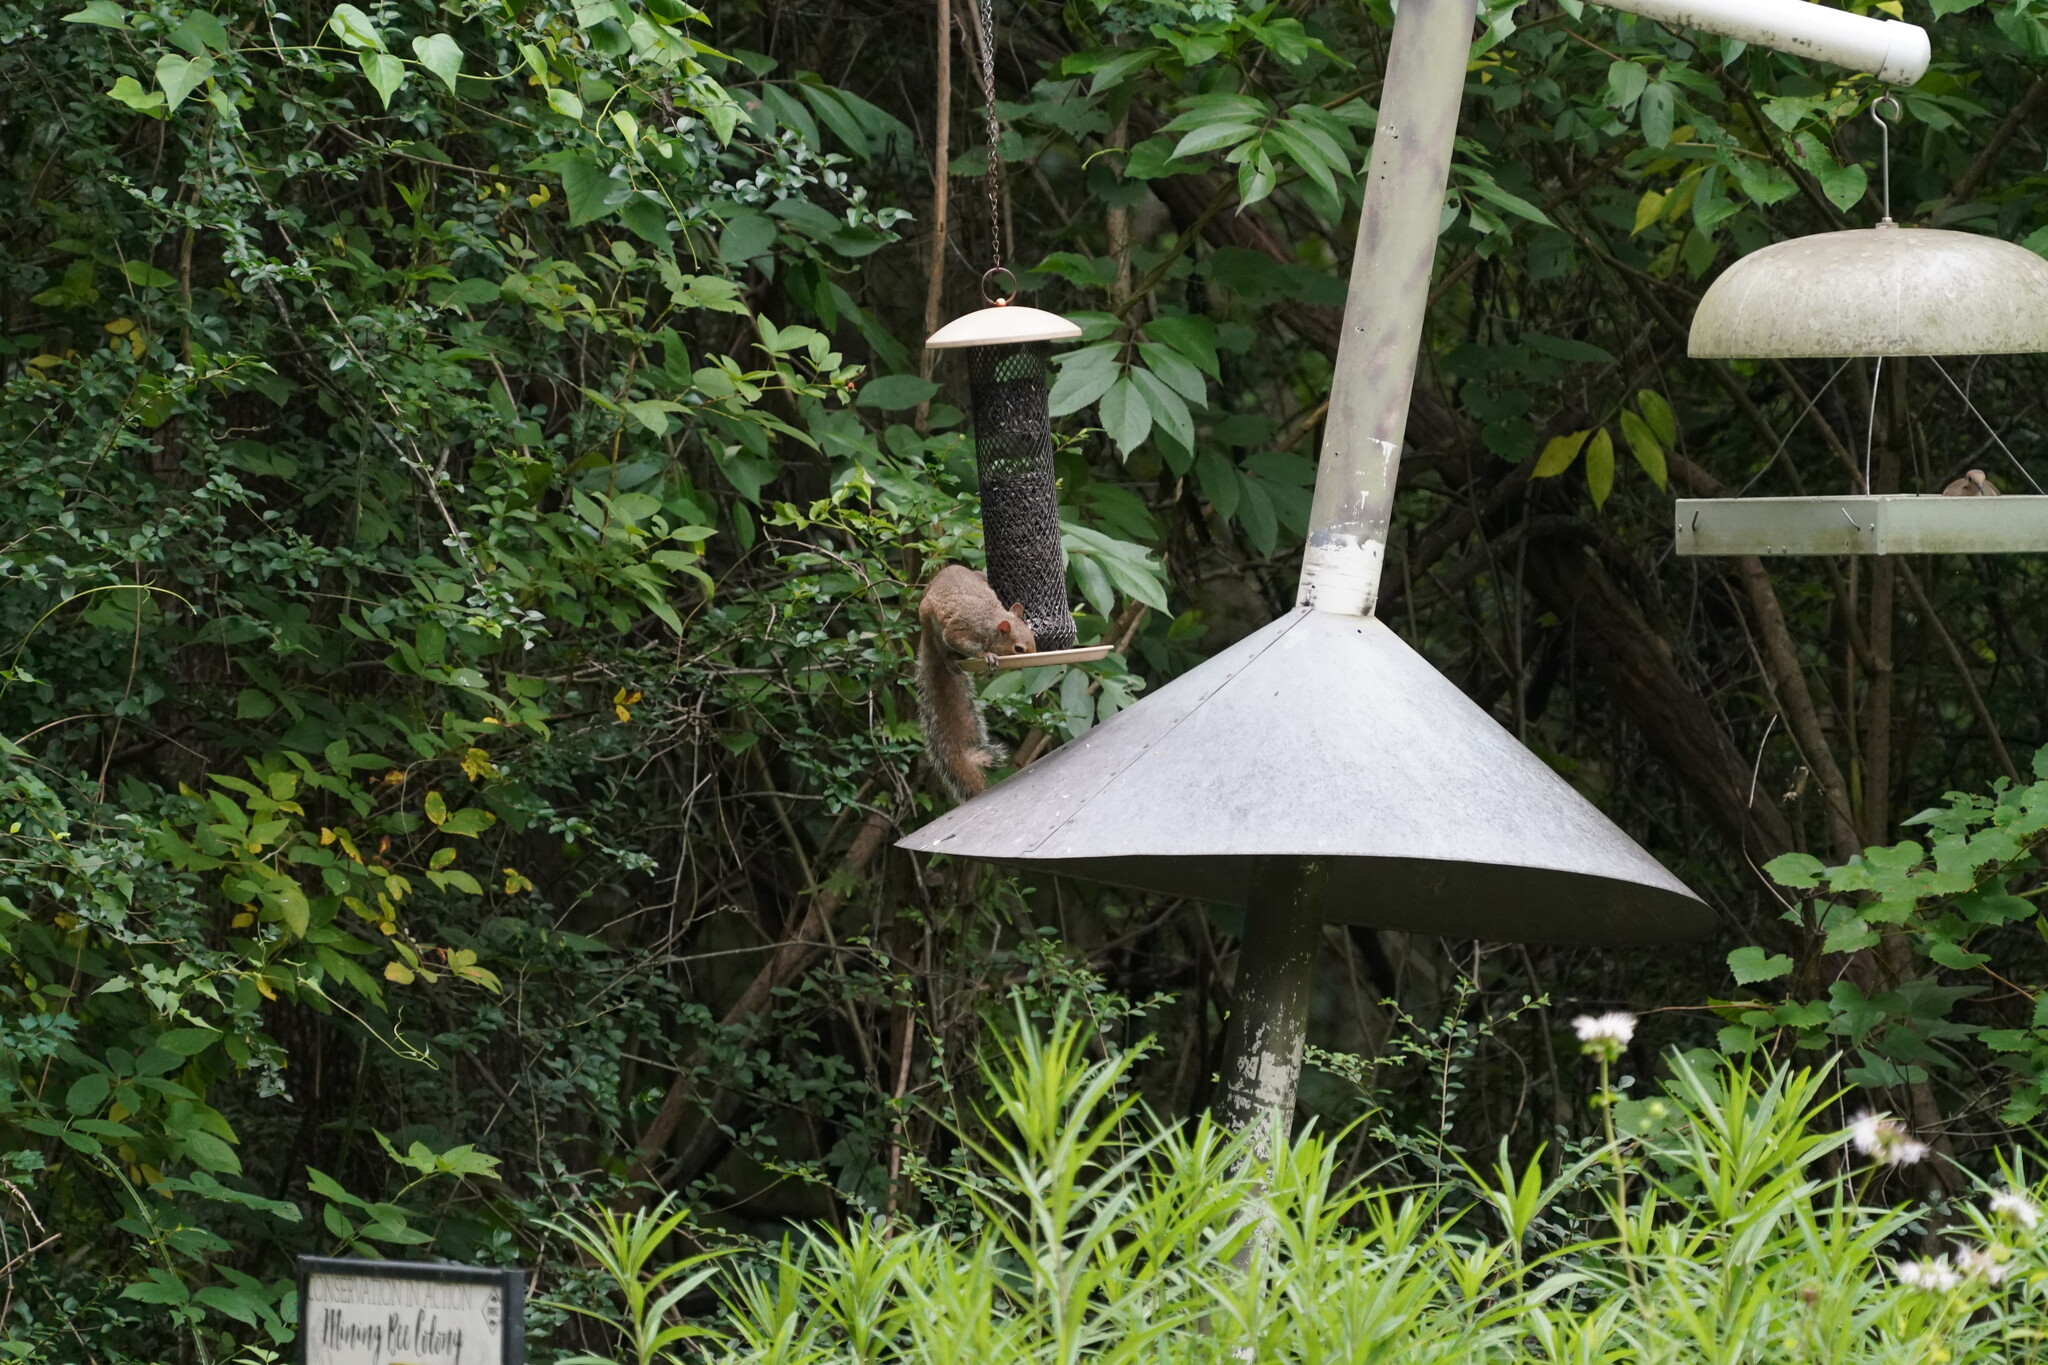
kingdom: Animalia
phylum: Chordata
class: Mammalia
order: Rodentia
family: Sciuridae
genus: Sciurus
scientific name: Sciurus carolinensis
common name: Eastern gray squirrel
